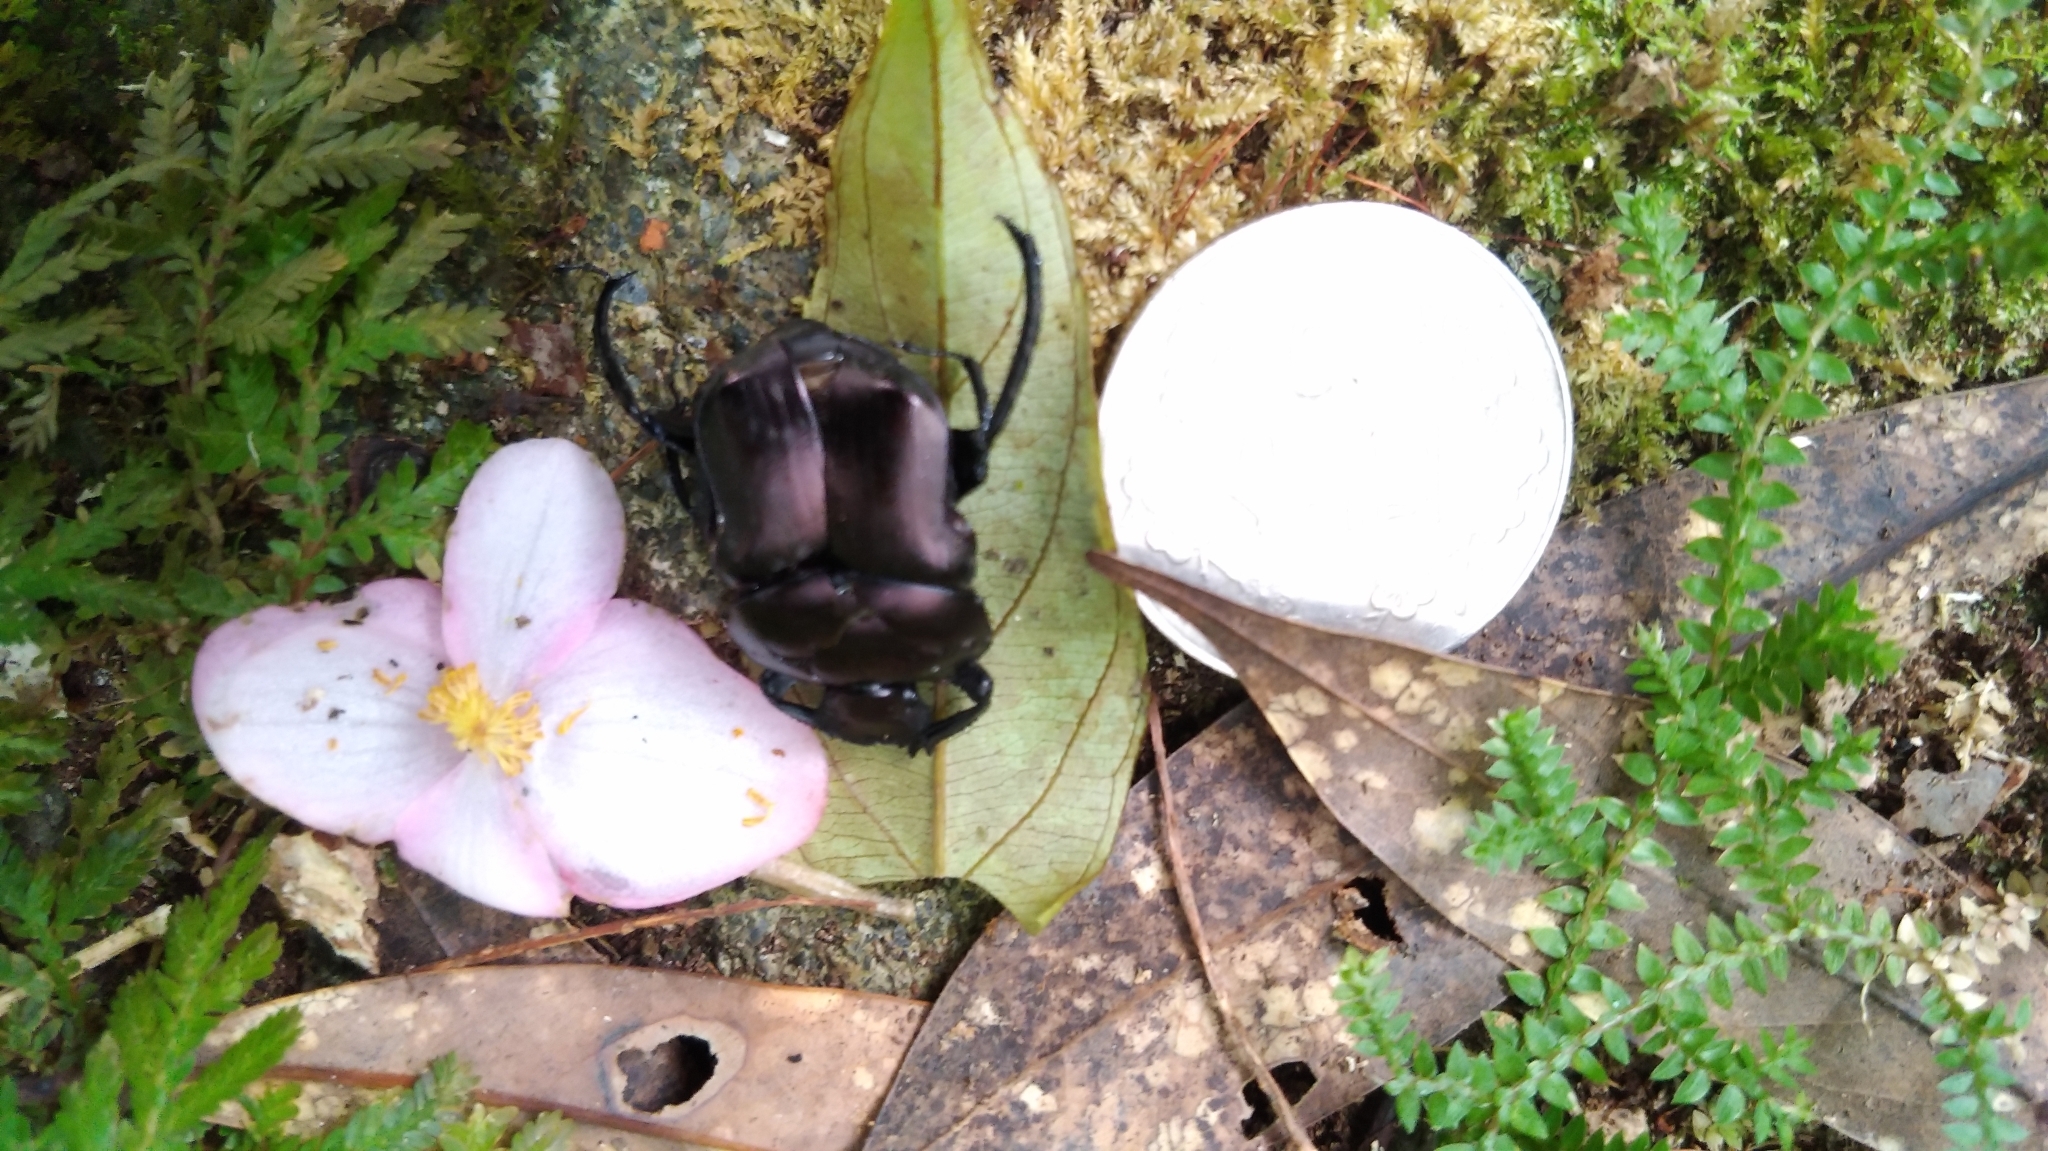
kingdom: Animalia
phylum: Arthropoda
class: Insecta
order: Coleoptera
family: Scarabaeidae
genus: Paragymnopleurus
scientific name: Paragymnopleurus ambiguus
